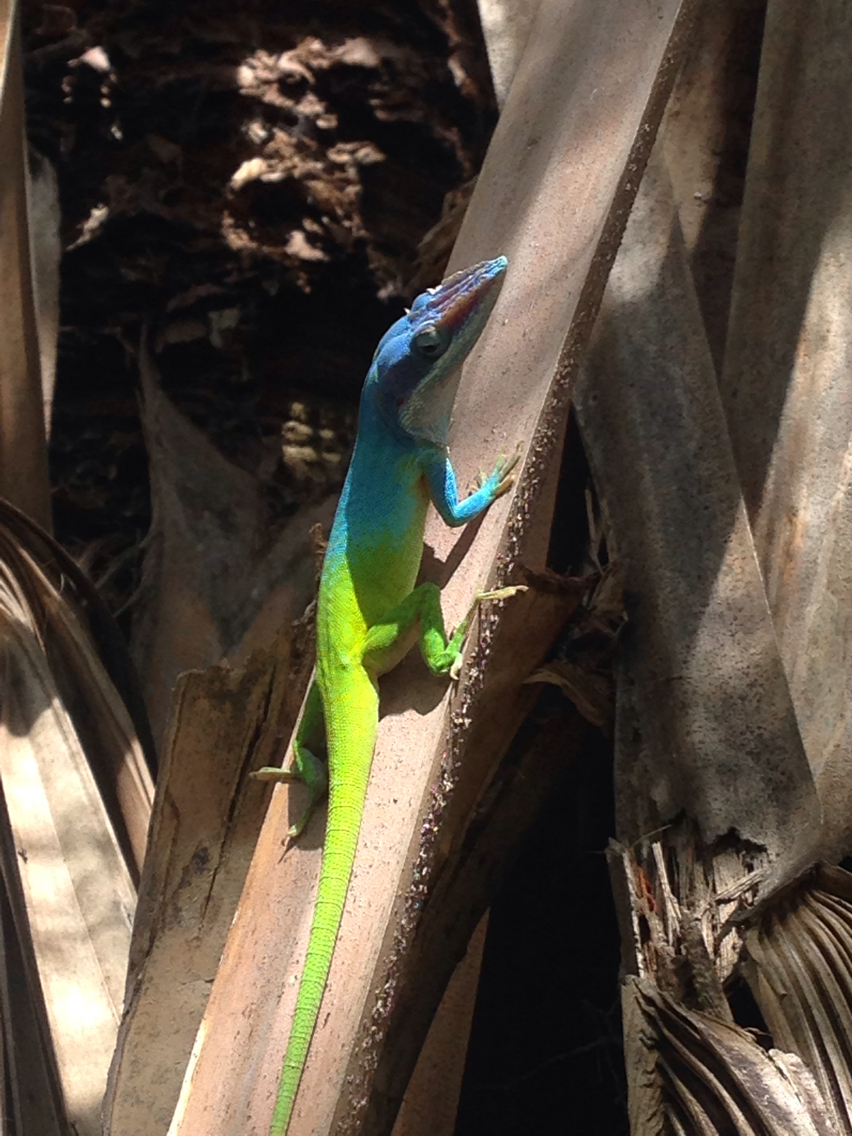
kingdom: Animalia
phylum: Chordata
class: Squamata
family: Dactyloidae
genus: Anolis
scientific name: Anolis allisoni
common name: Allison's anole
